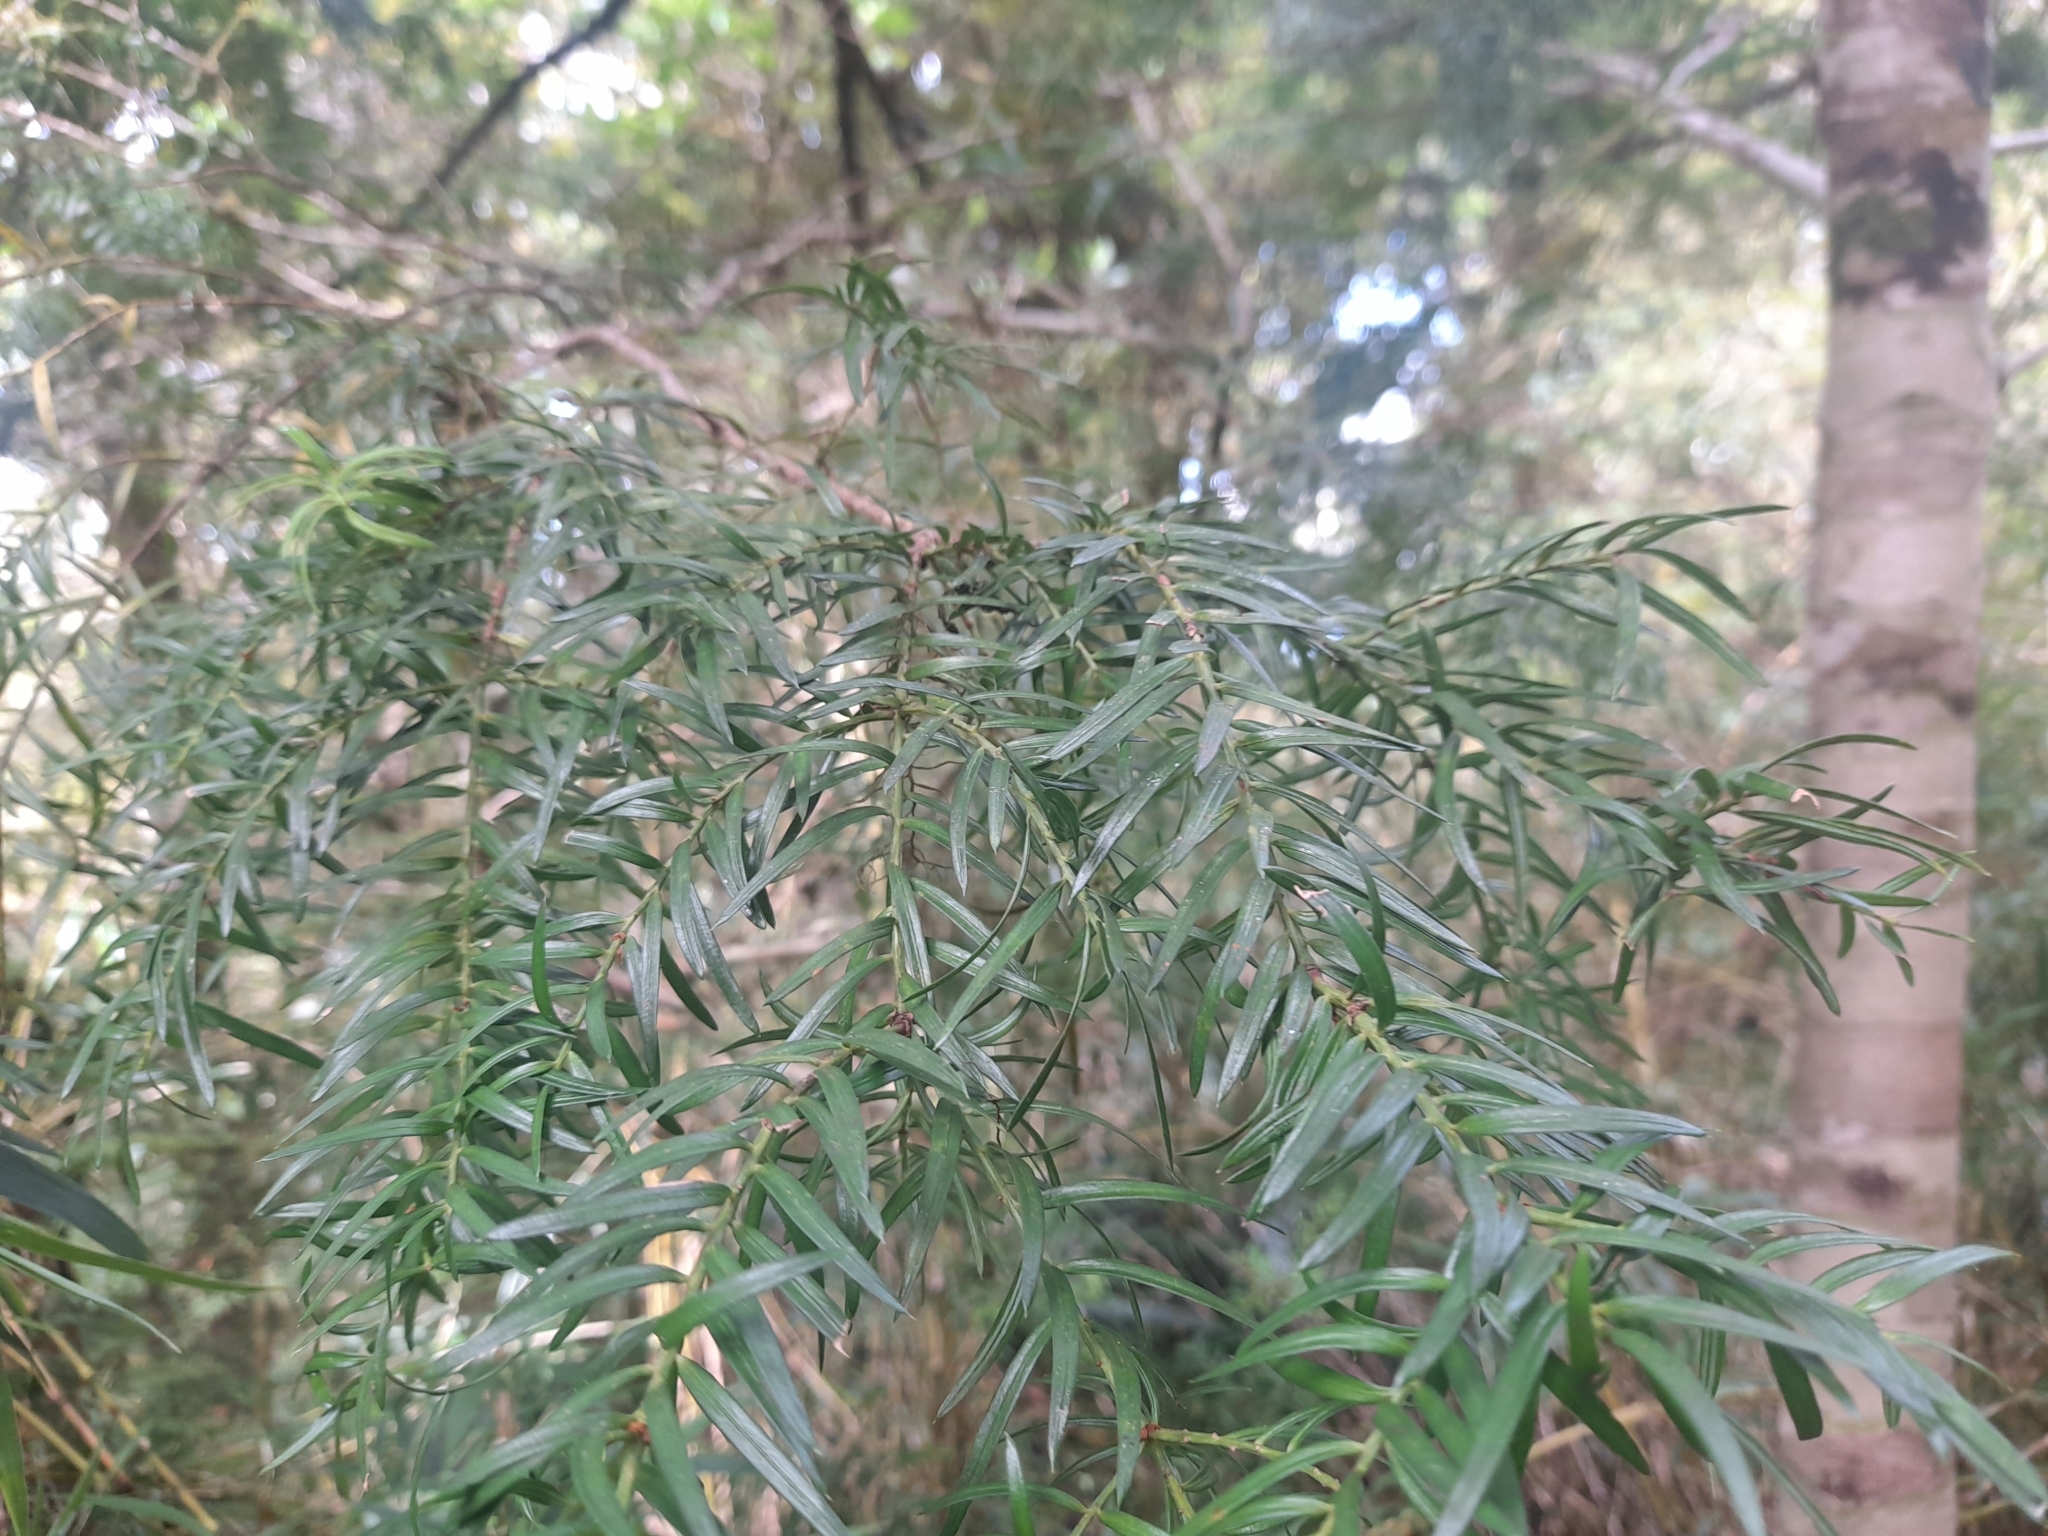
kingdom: Plantae
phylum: Tracheophyta
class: Pinopsida
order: Pinales
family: Podocarpaceae
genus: Saxegothaea
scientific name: Saxegothaea conspicua
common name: Prince albert's yew
